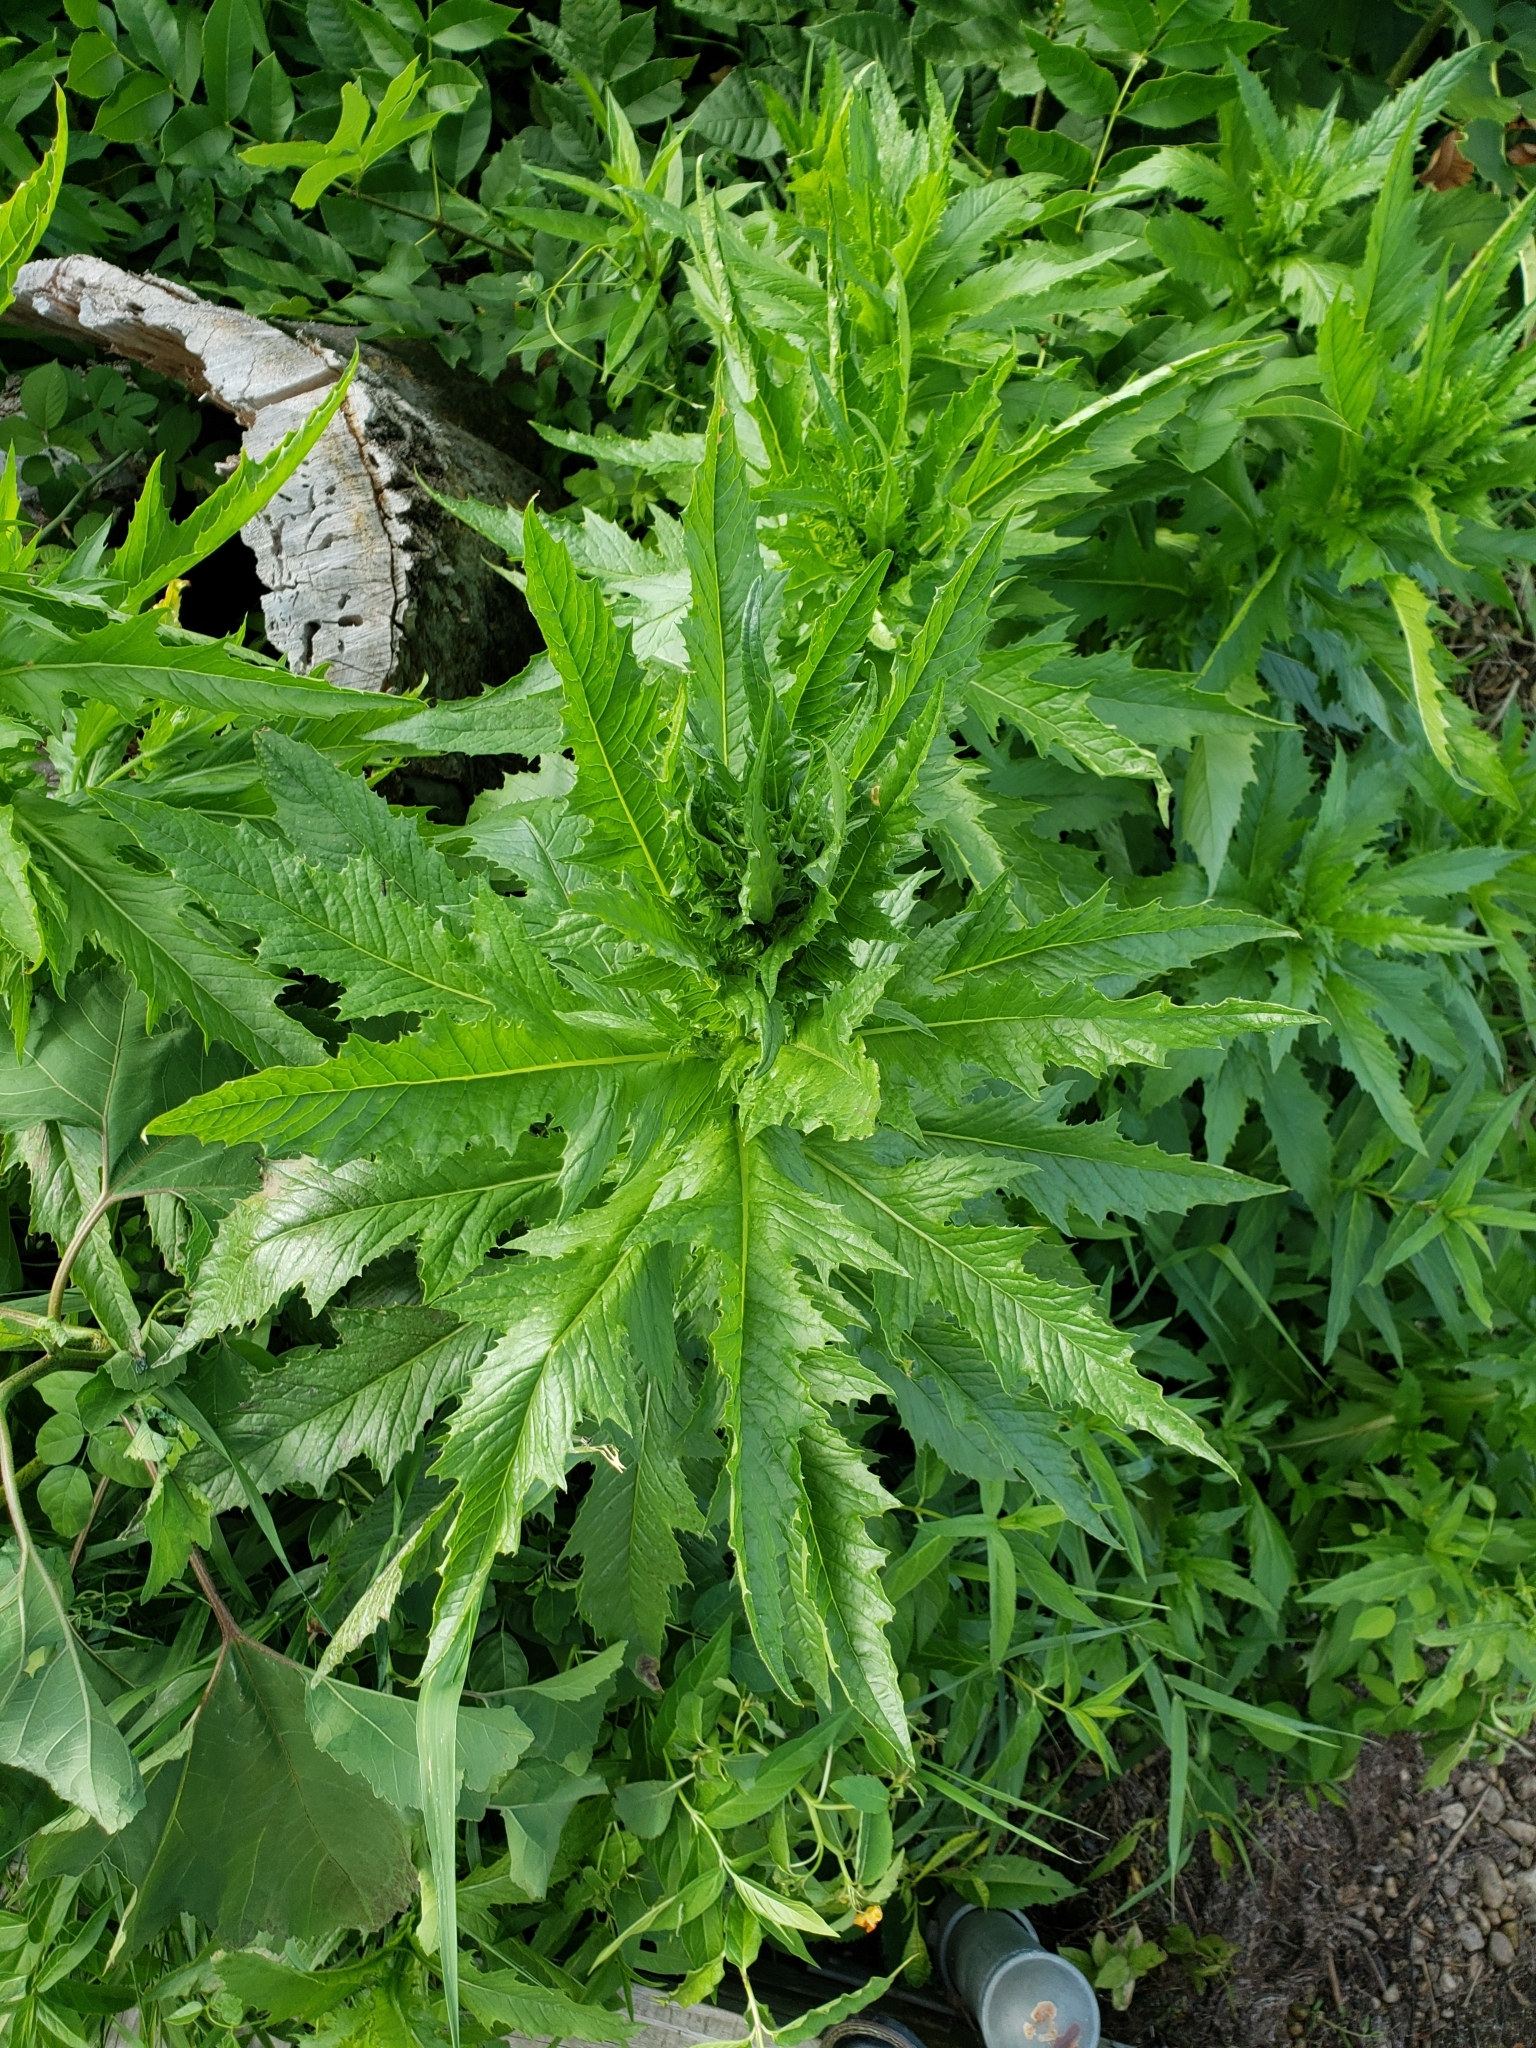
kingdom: Plantae
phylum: Tracheophyta
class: Magnoliopsida
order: Asterales
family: Asteraceae
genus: Erechtites
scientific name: Erechtites hieraciifolius
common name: American burnweed
